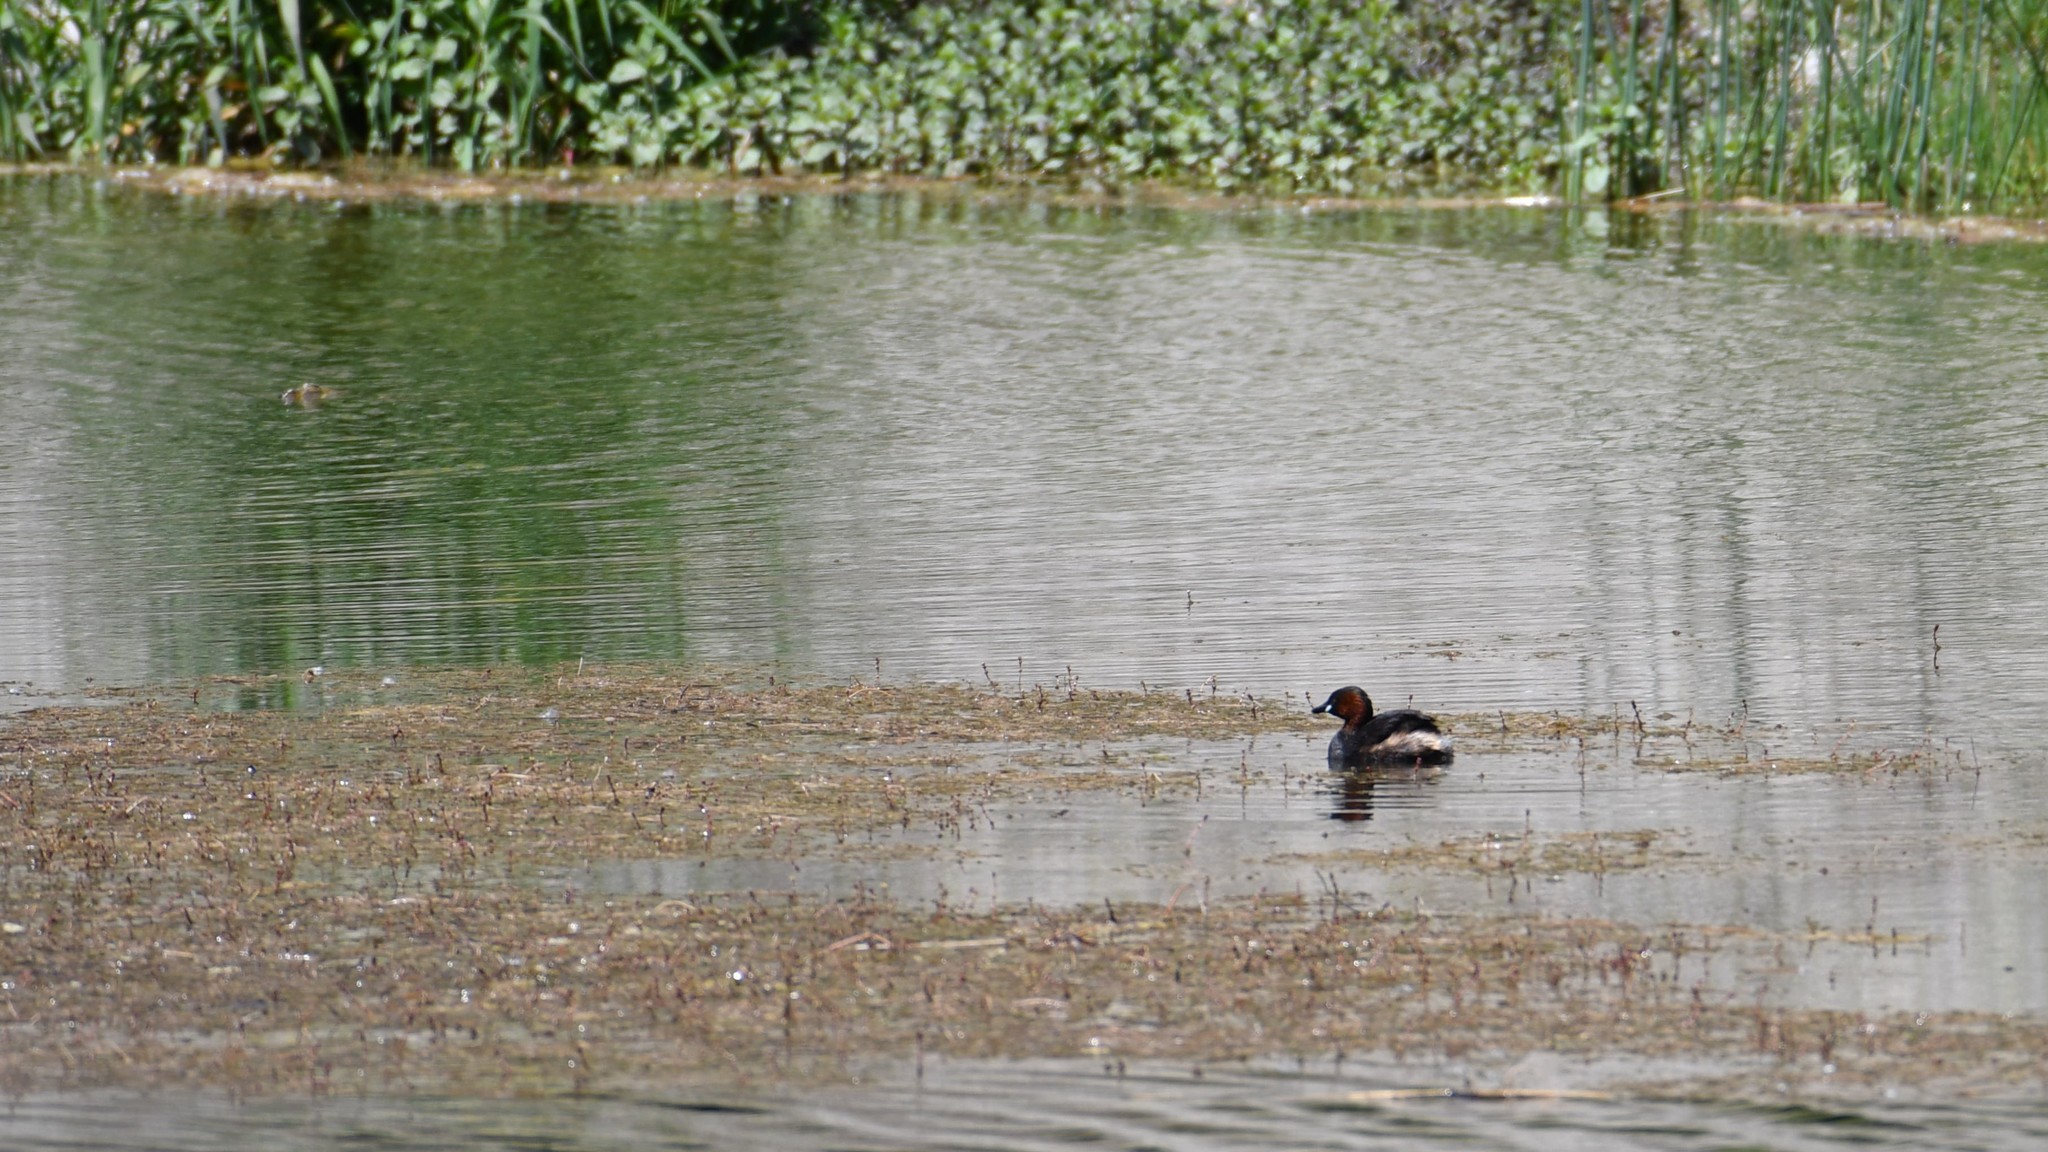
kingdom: Animalia
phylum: Chordata
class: Aves
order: Podicipediformes
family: Podicipedidae
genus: Tachybaptus
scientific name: Tachybaptus ruficollis
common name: Little grebe
